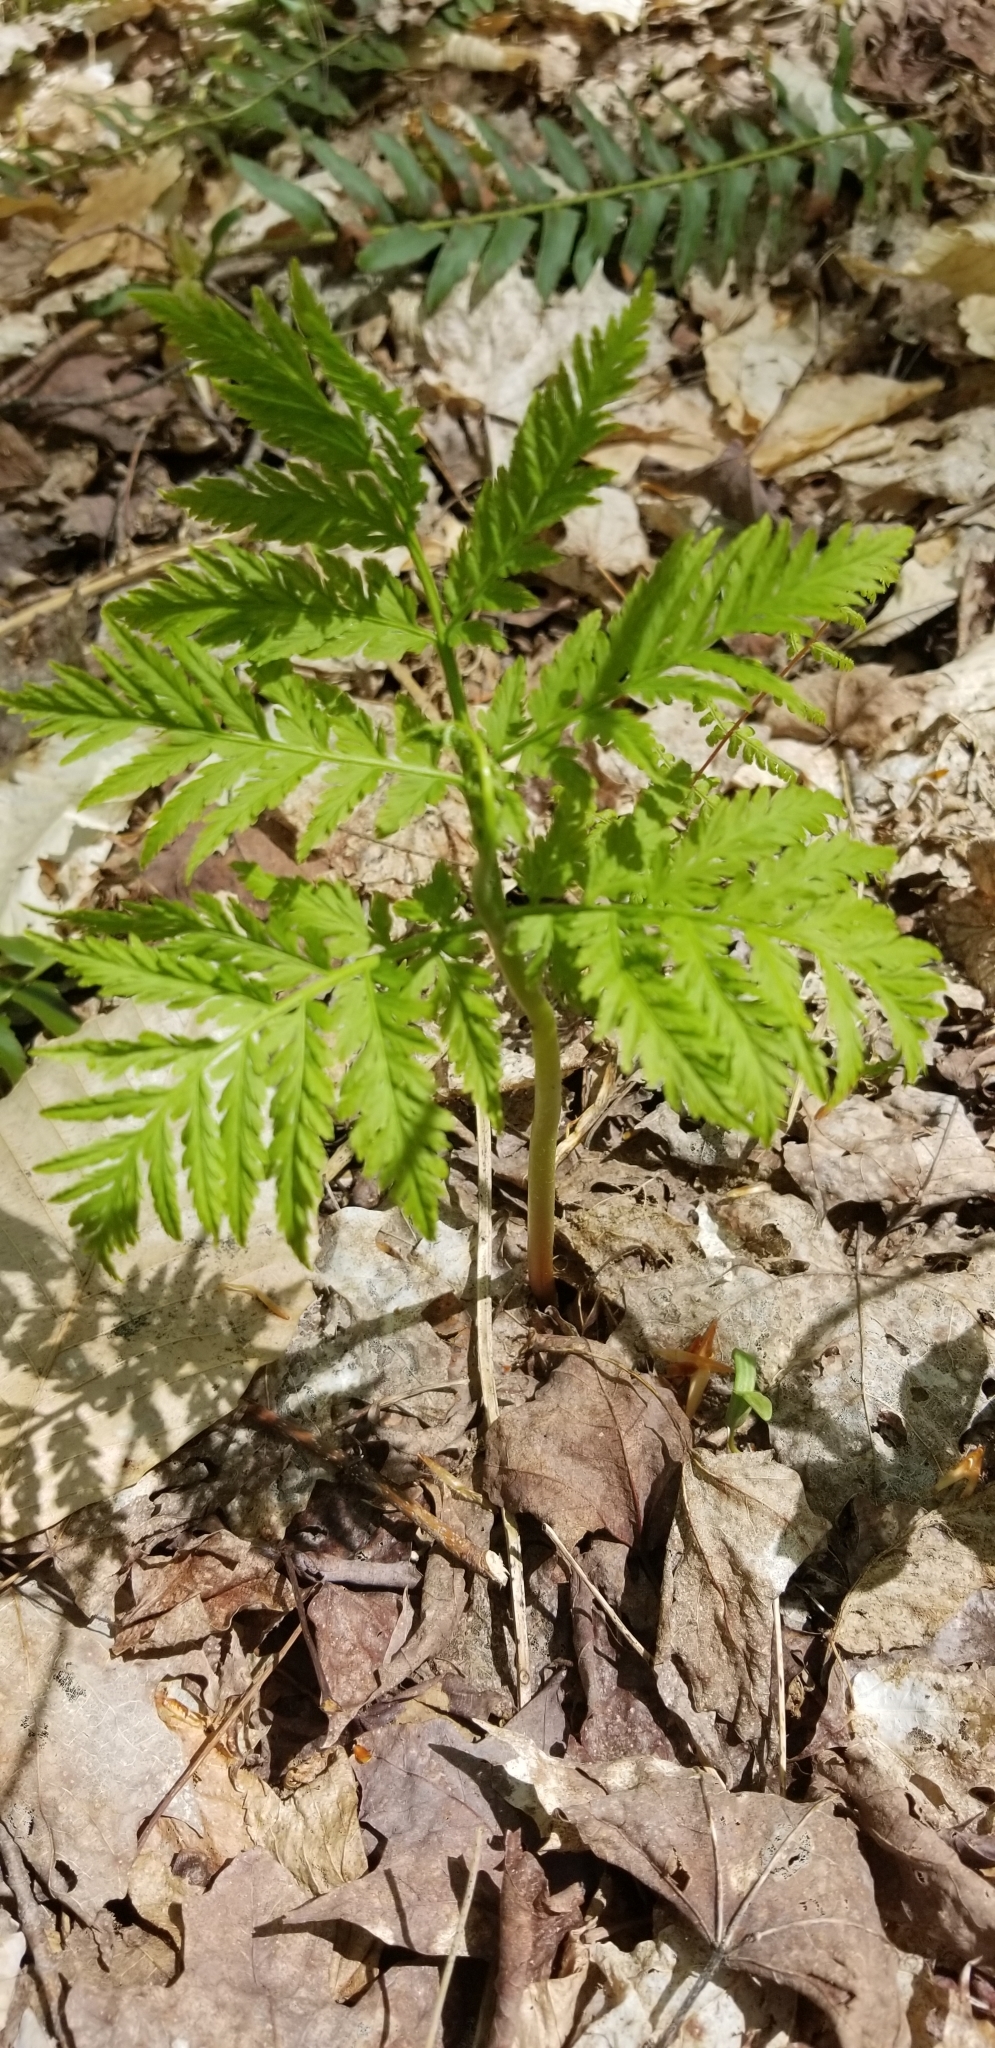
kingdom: Plantae
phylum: Tracheophyta
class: Polypodiopsida
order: Ophioglossales
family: Ophioglossaceae
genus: Botrypus
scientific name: Botrypus virginianus
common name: Common grapefern
